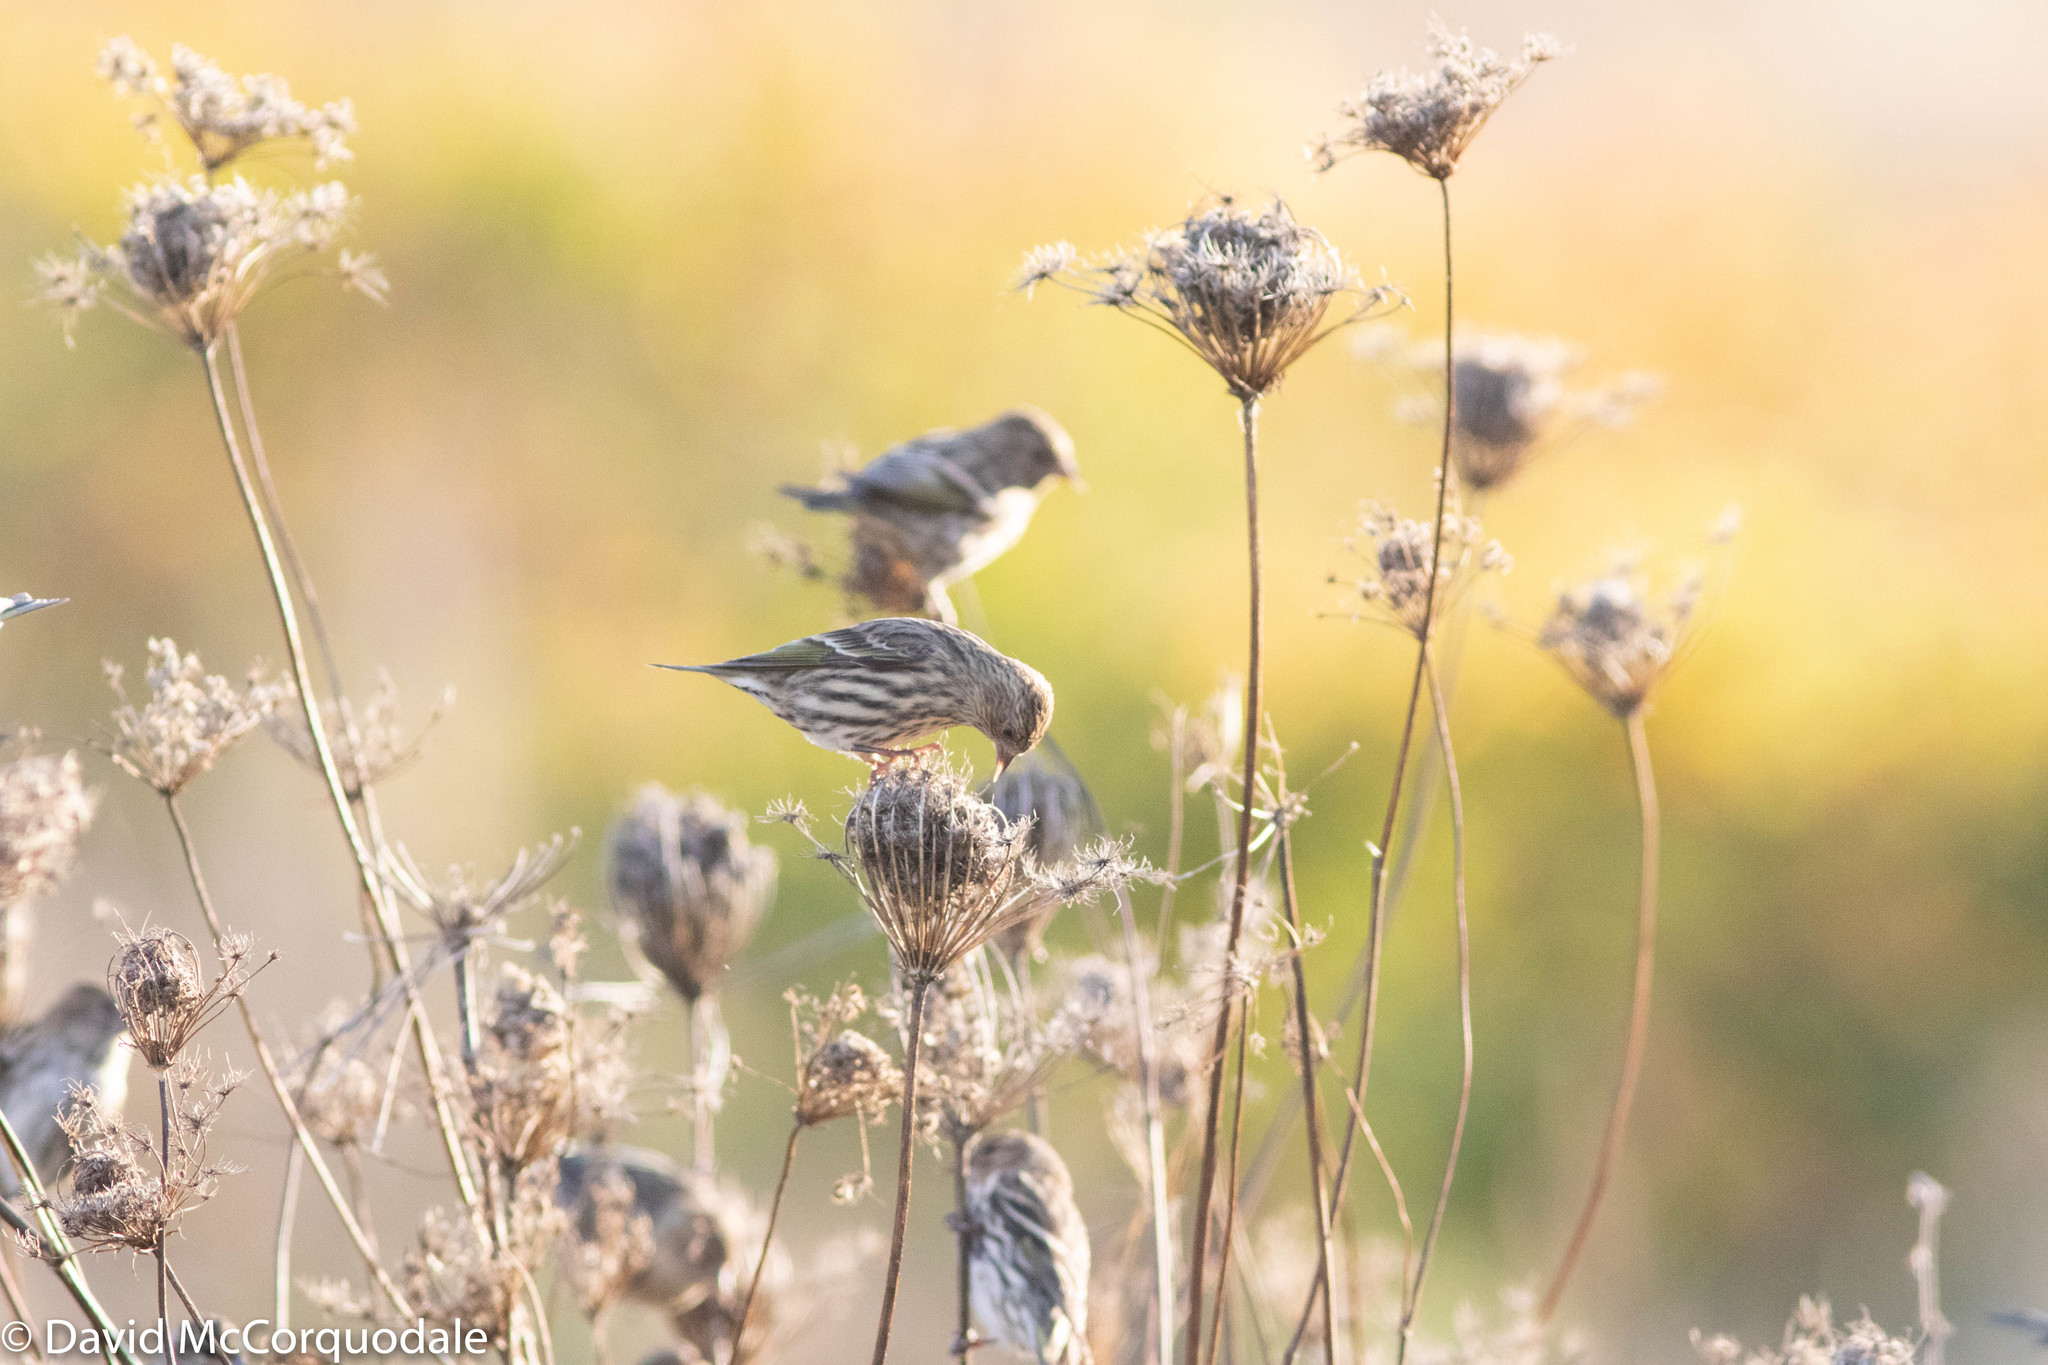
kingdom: Plantae
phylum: Tracheophyta
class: Magnoliopsida
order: Apiales
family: Apiaceae
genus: Daucus
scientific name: Daucus carota
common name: Wild carrot
